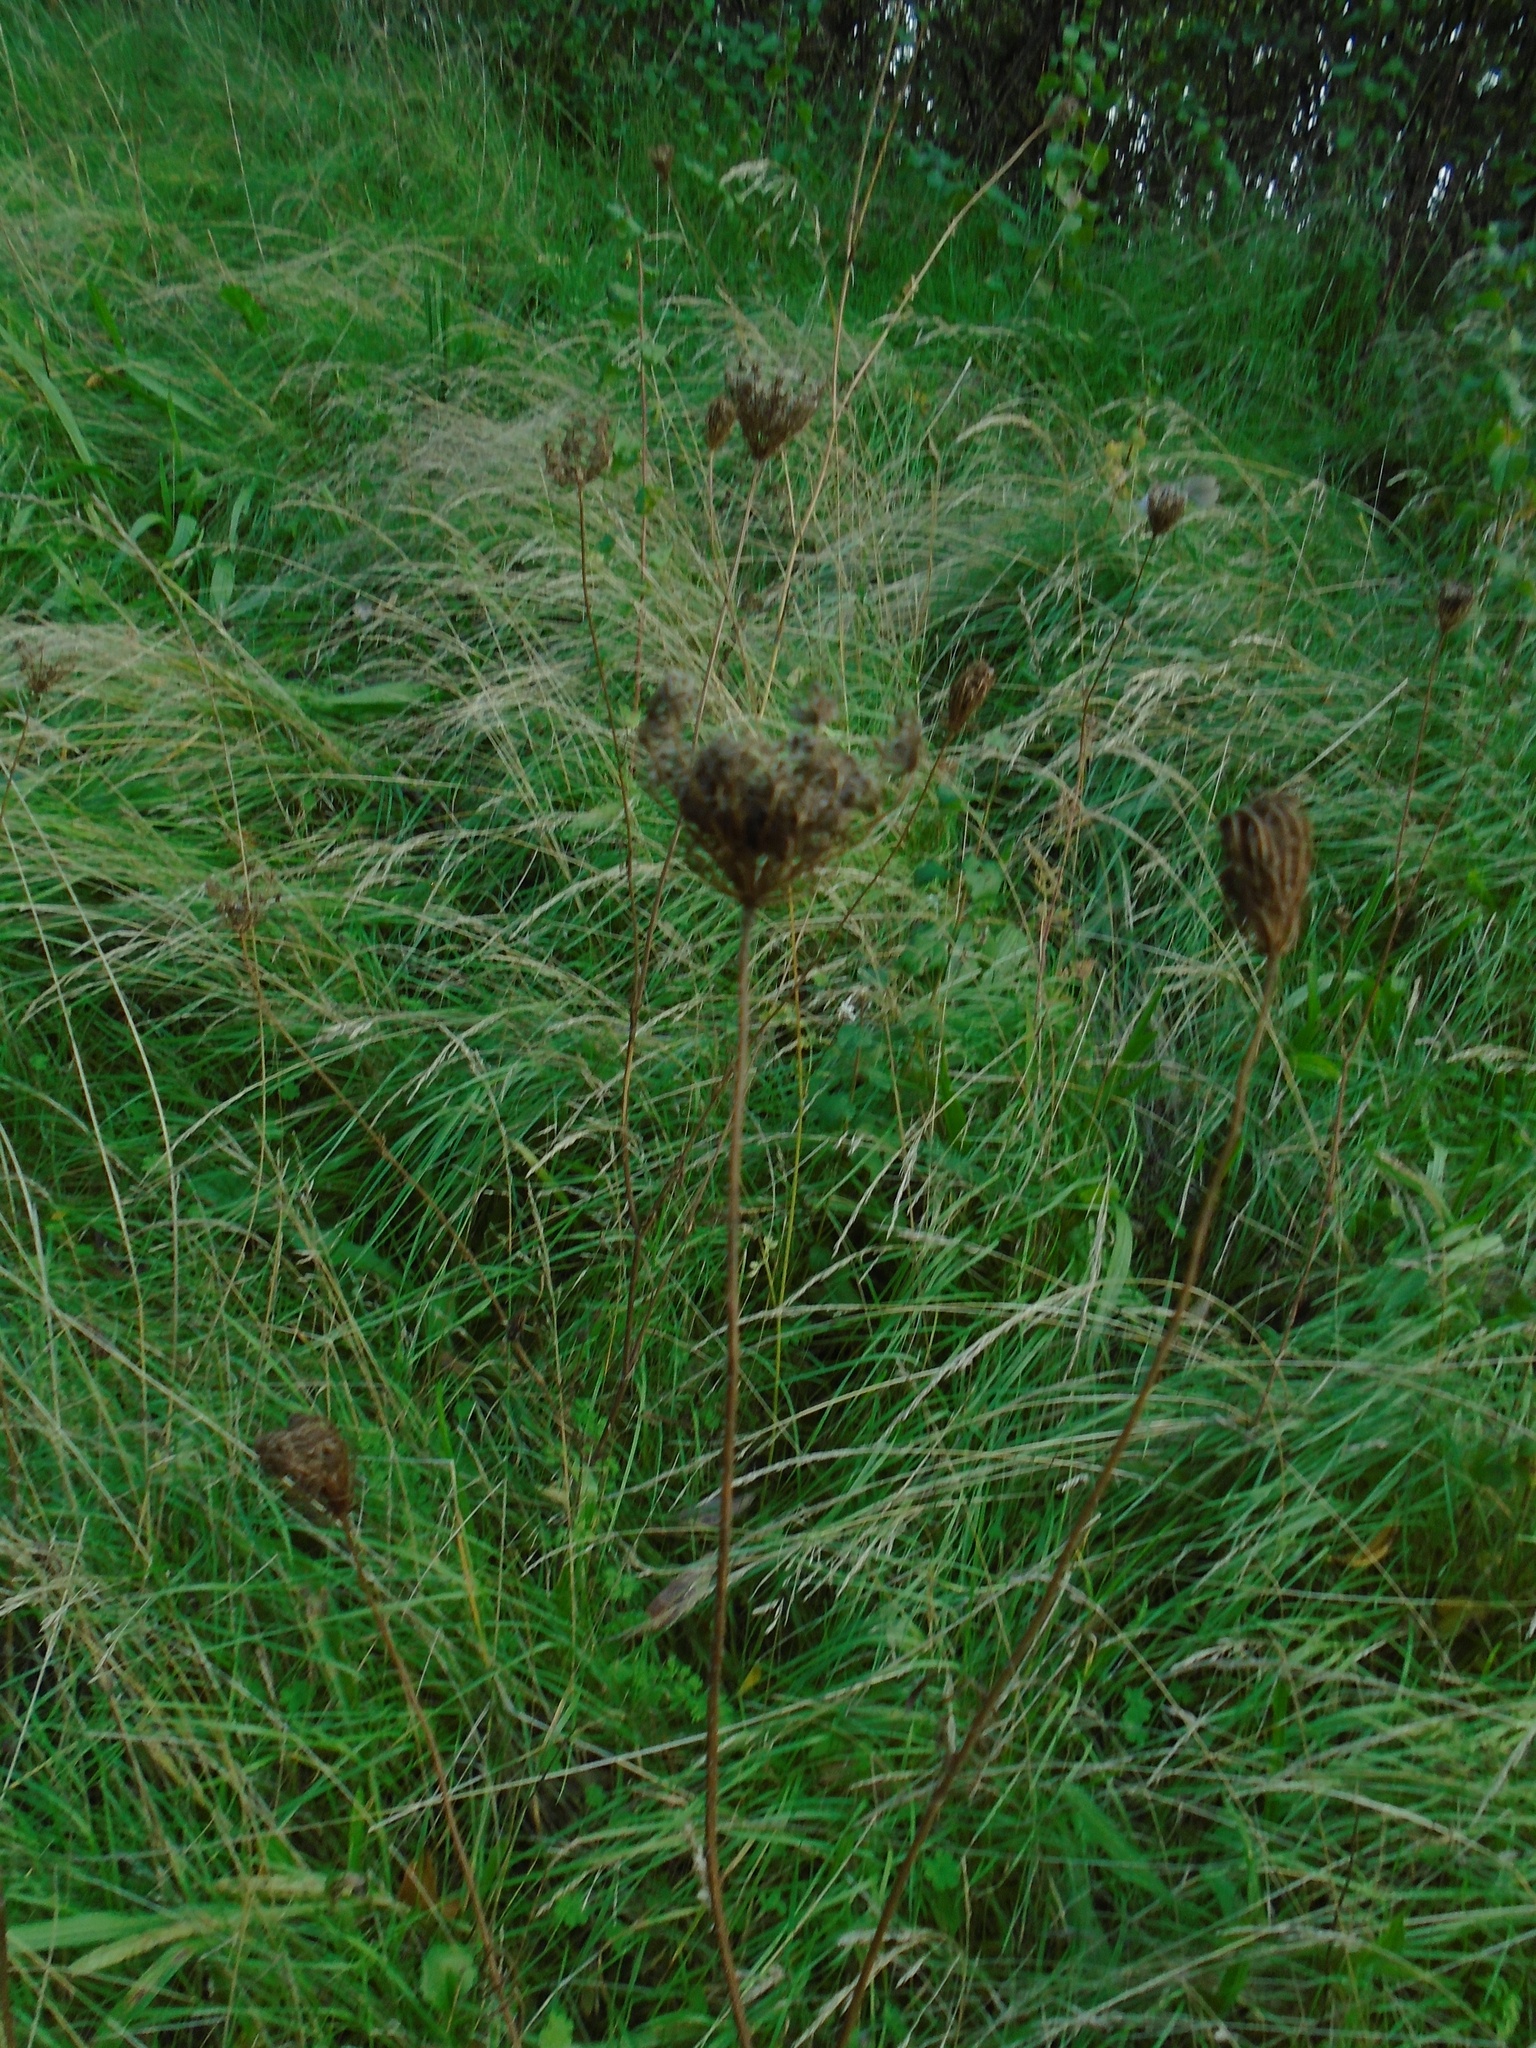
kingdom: Plantae
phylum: Tracheophyta
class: Magnoliopsida
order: Apiales
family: Apiaceae
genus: Daucus
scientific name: Daucus carota
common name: Wild carrot
